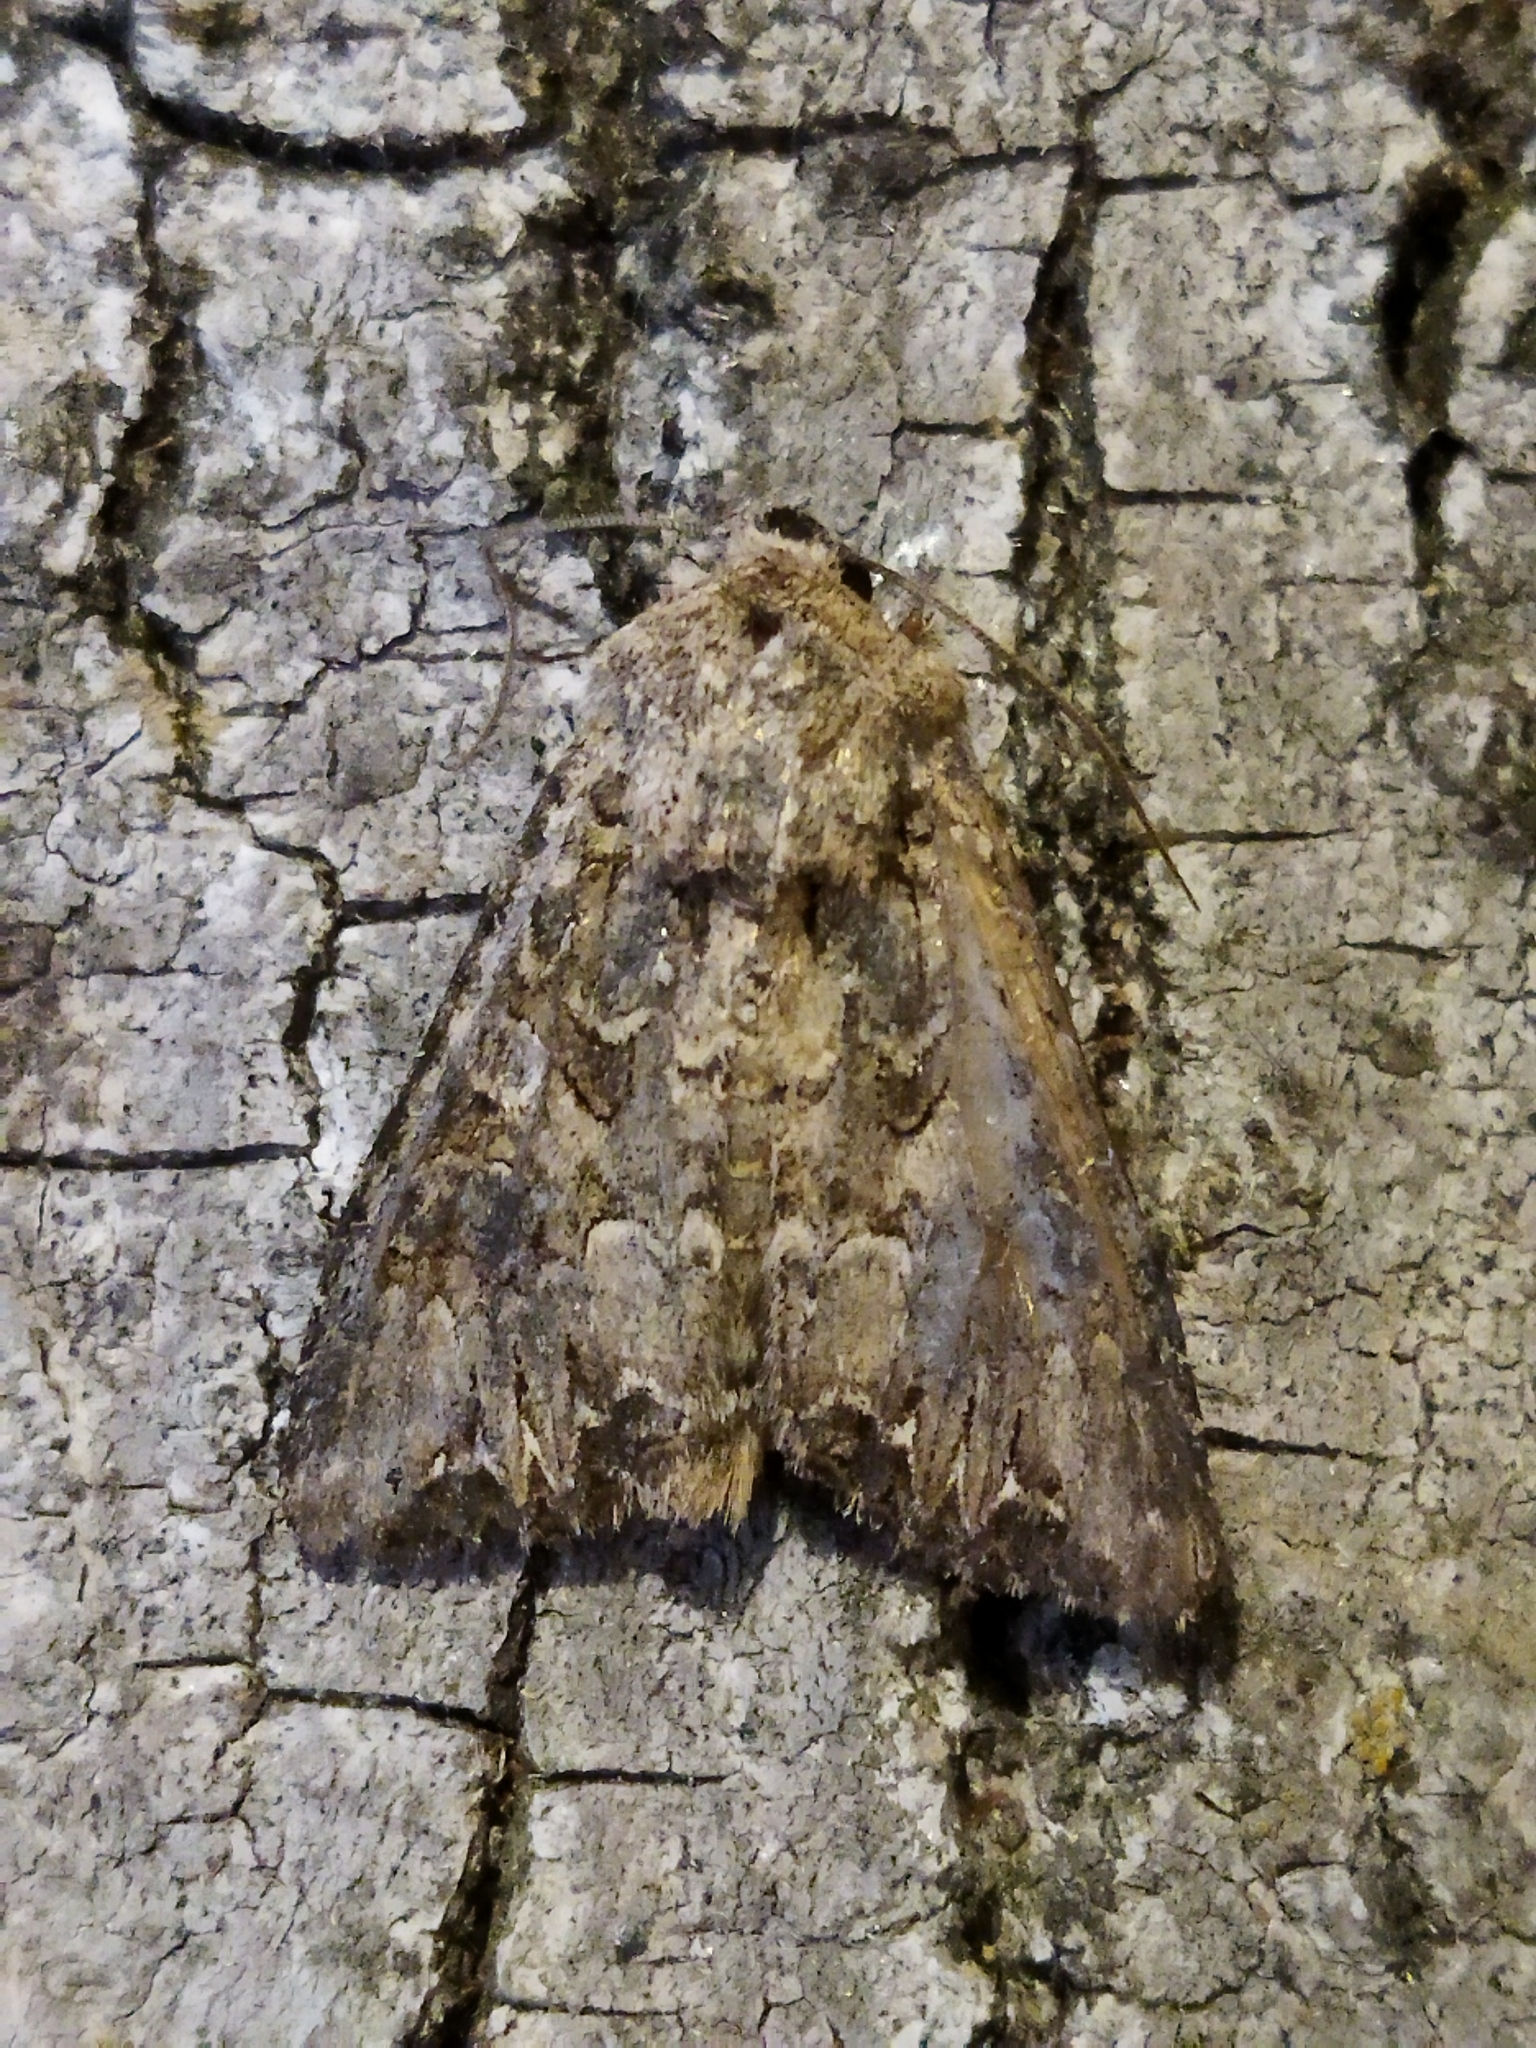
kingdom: Animalia
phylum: Arthropoda
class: Insecta
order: Lepidoptera
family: Noctuidae
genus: Anarta
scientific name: Anarta trifolii
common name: Clover cutworm moth
